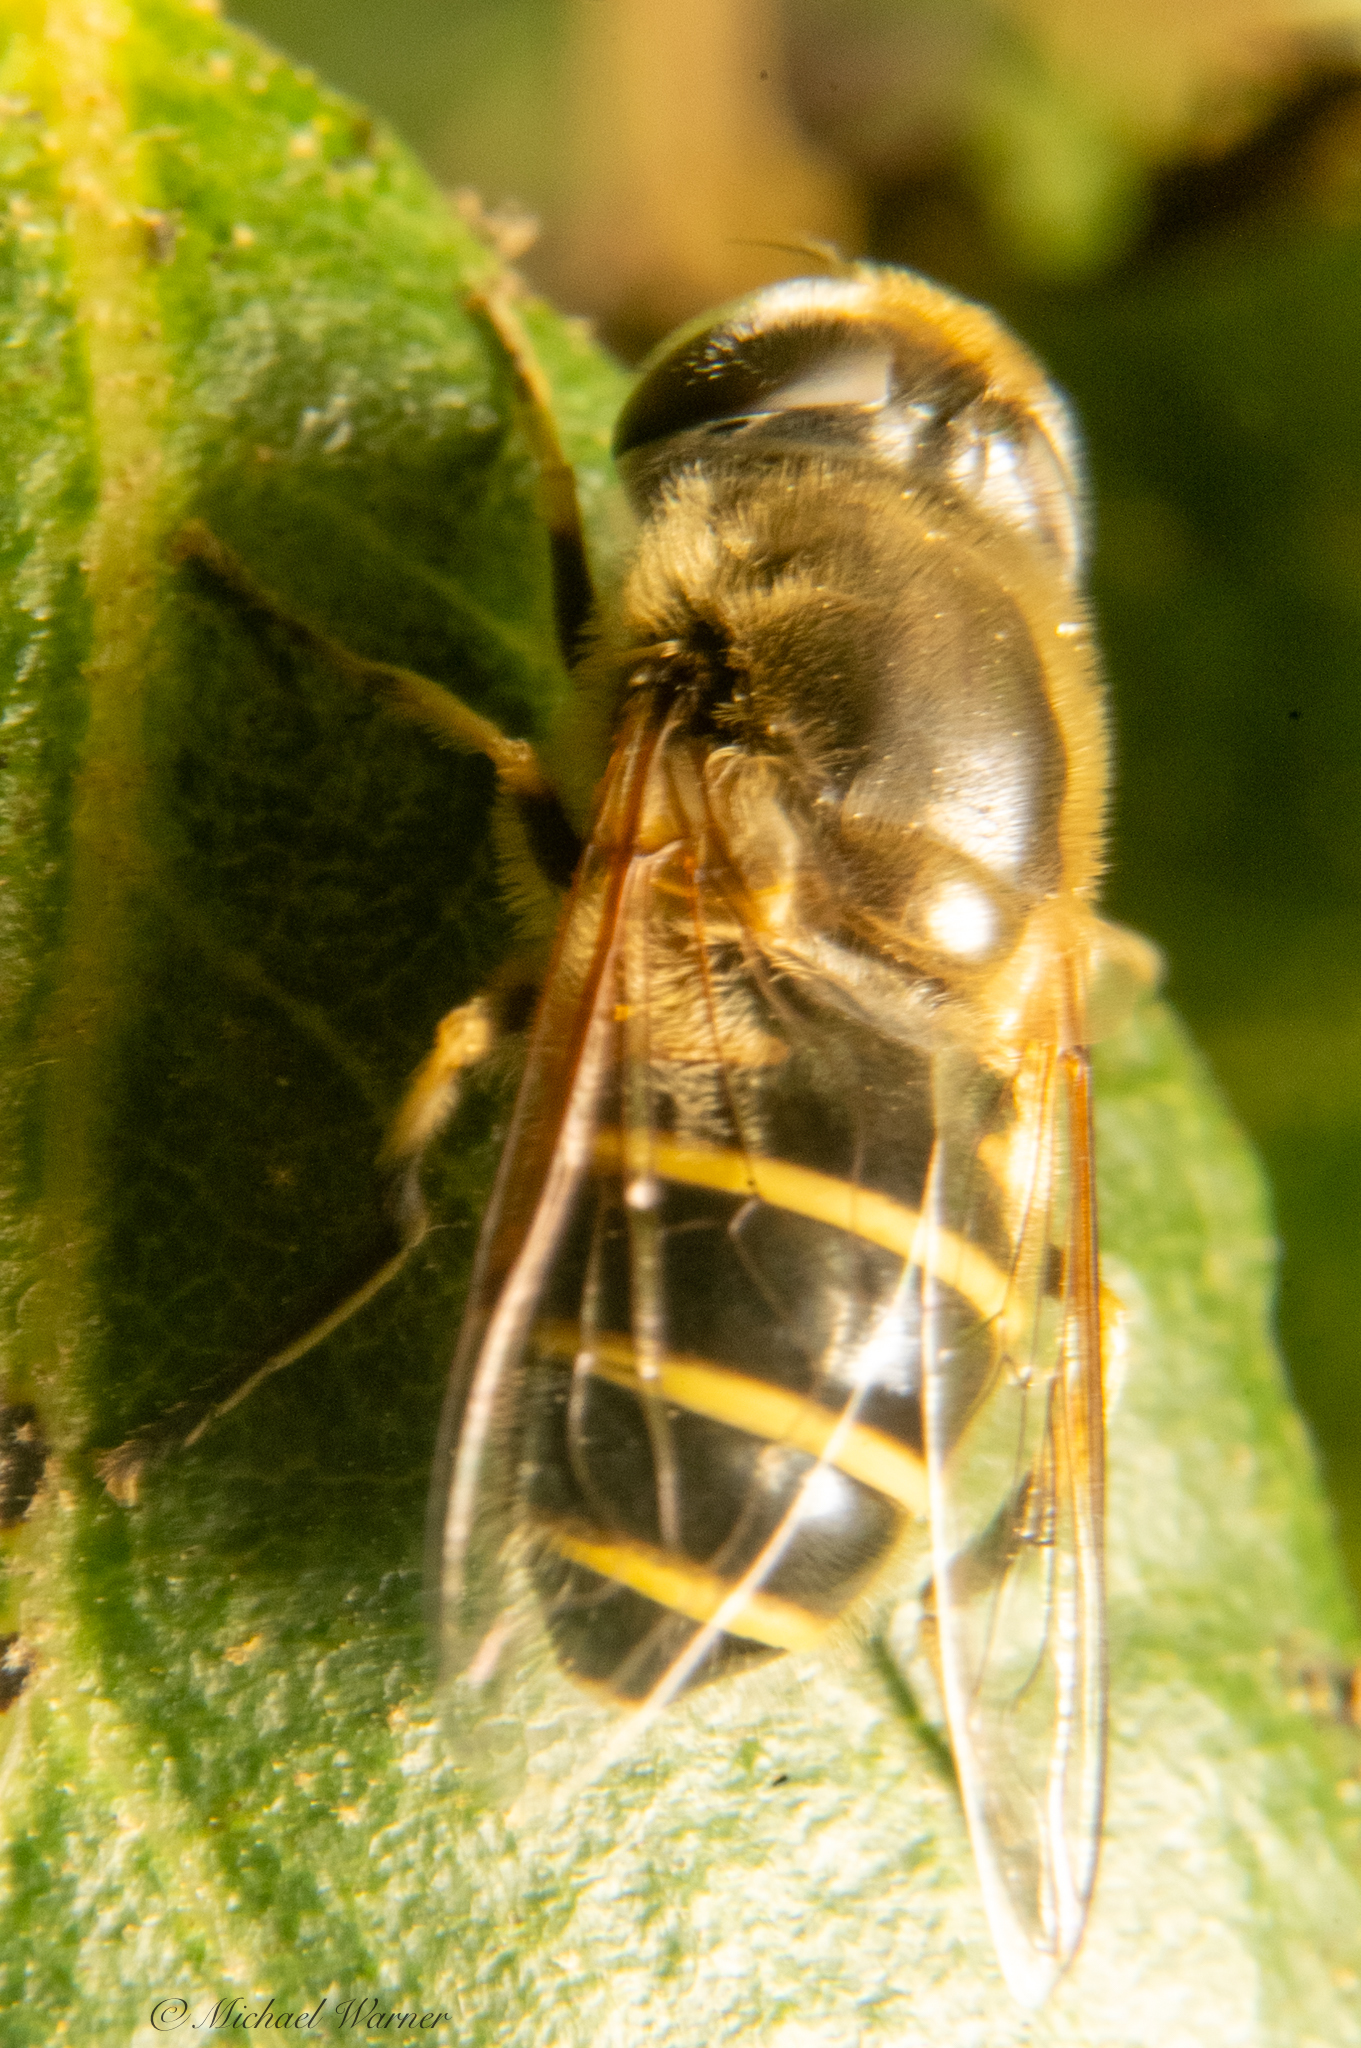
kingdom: Animalia
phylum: Arthropoda
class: Insecta
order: Diptera
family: Syrphidae
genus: Eristalis
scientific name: Eristalis hirta
